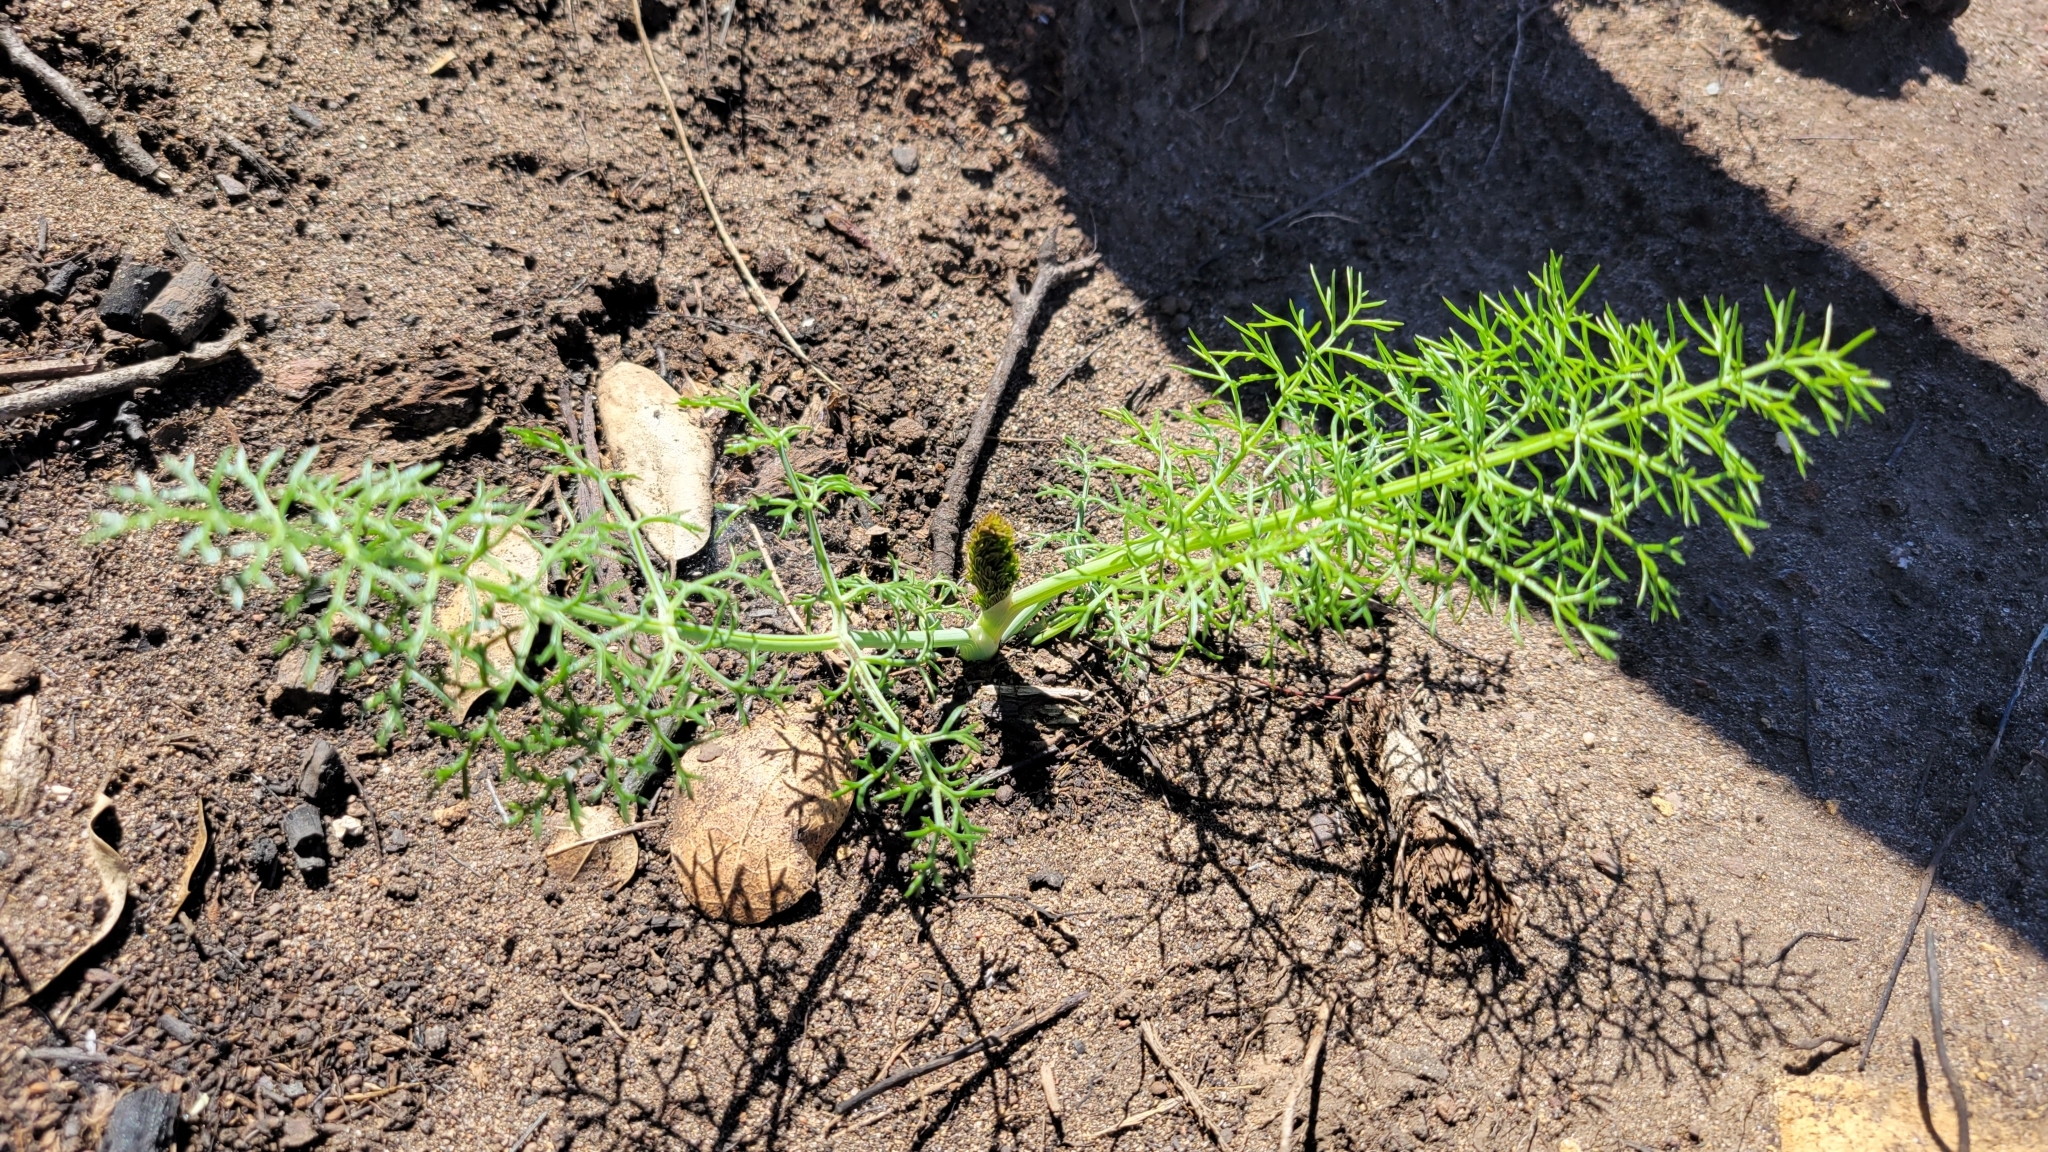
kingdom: Plantae
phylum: Tracheophyta
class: Magnoliopsida
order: Apiales
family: Apiaceae
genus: Foeniculum
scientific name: Foeniculum vulgare
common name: Fennel
